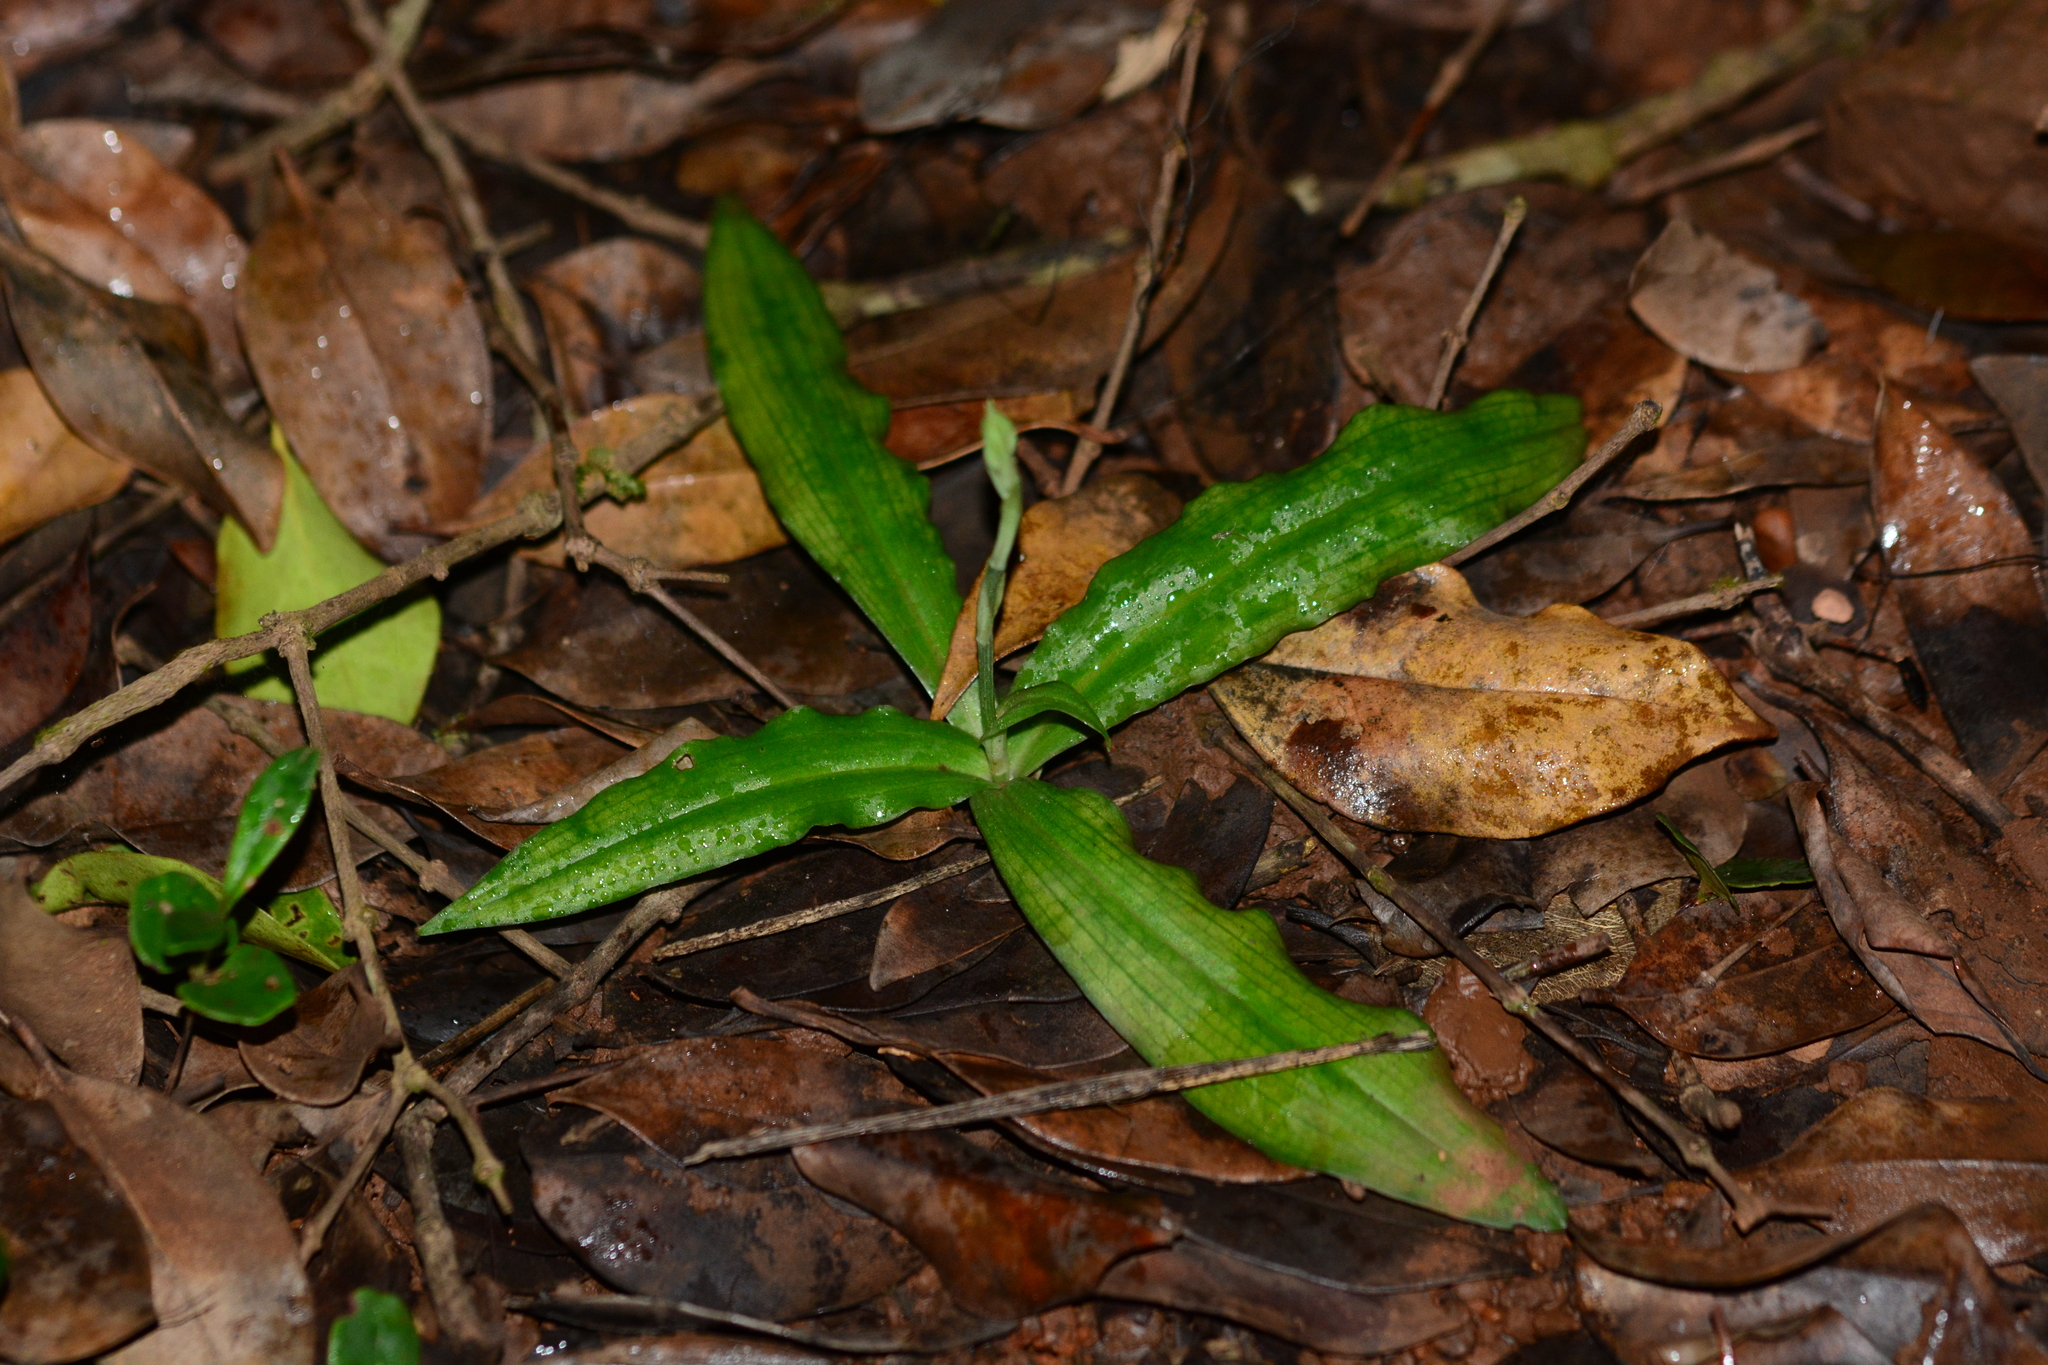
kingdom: Plantae
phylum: Tracheophyta
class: Liliopsida
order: Asparagales
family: Orchidaceae
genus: Habenaria
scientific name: Habenaria plantaginea
